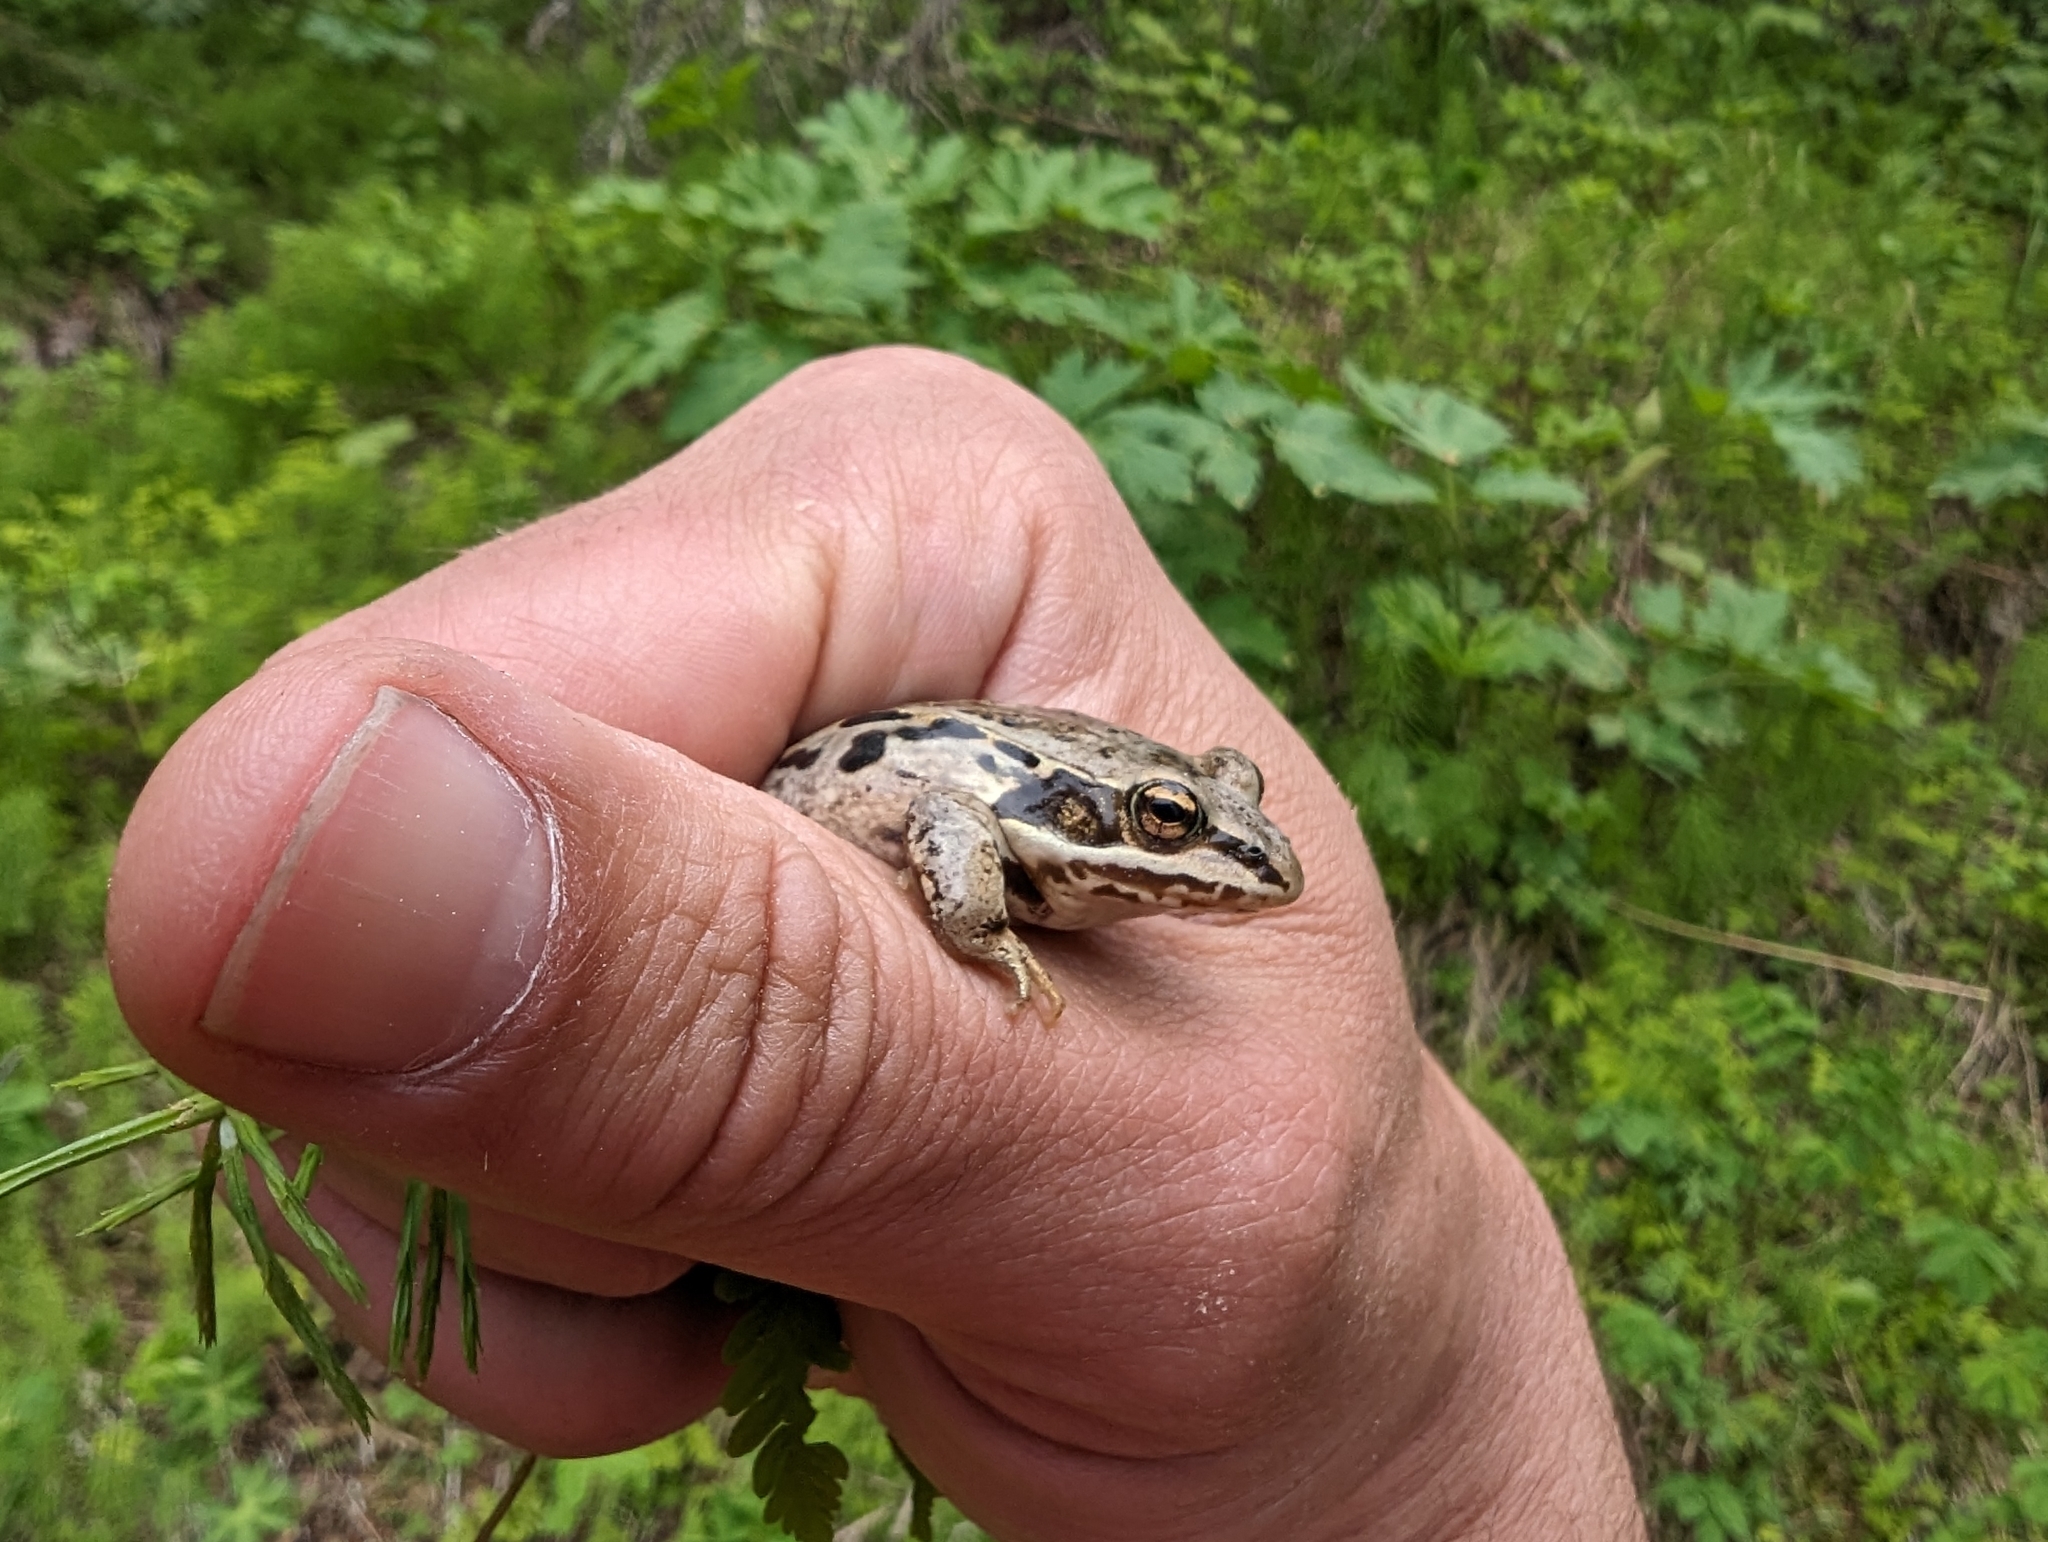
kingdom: Animalia
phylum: Chordata
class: Amphibia
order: Anura
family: Ranidae
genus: Lithobates
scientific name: Lithobates sylvaticus
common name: Wood frog
